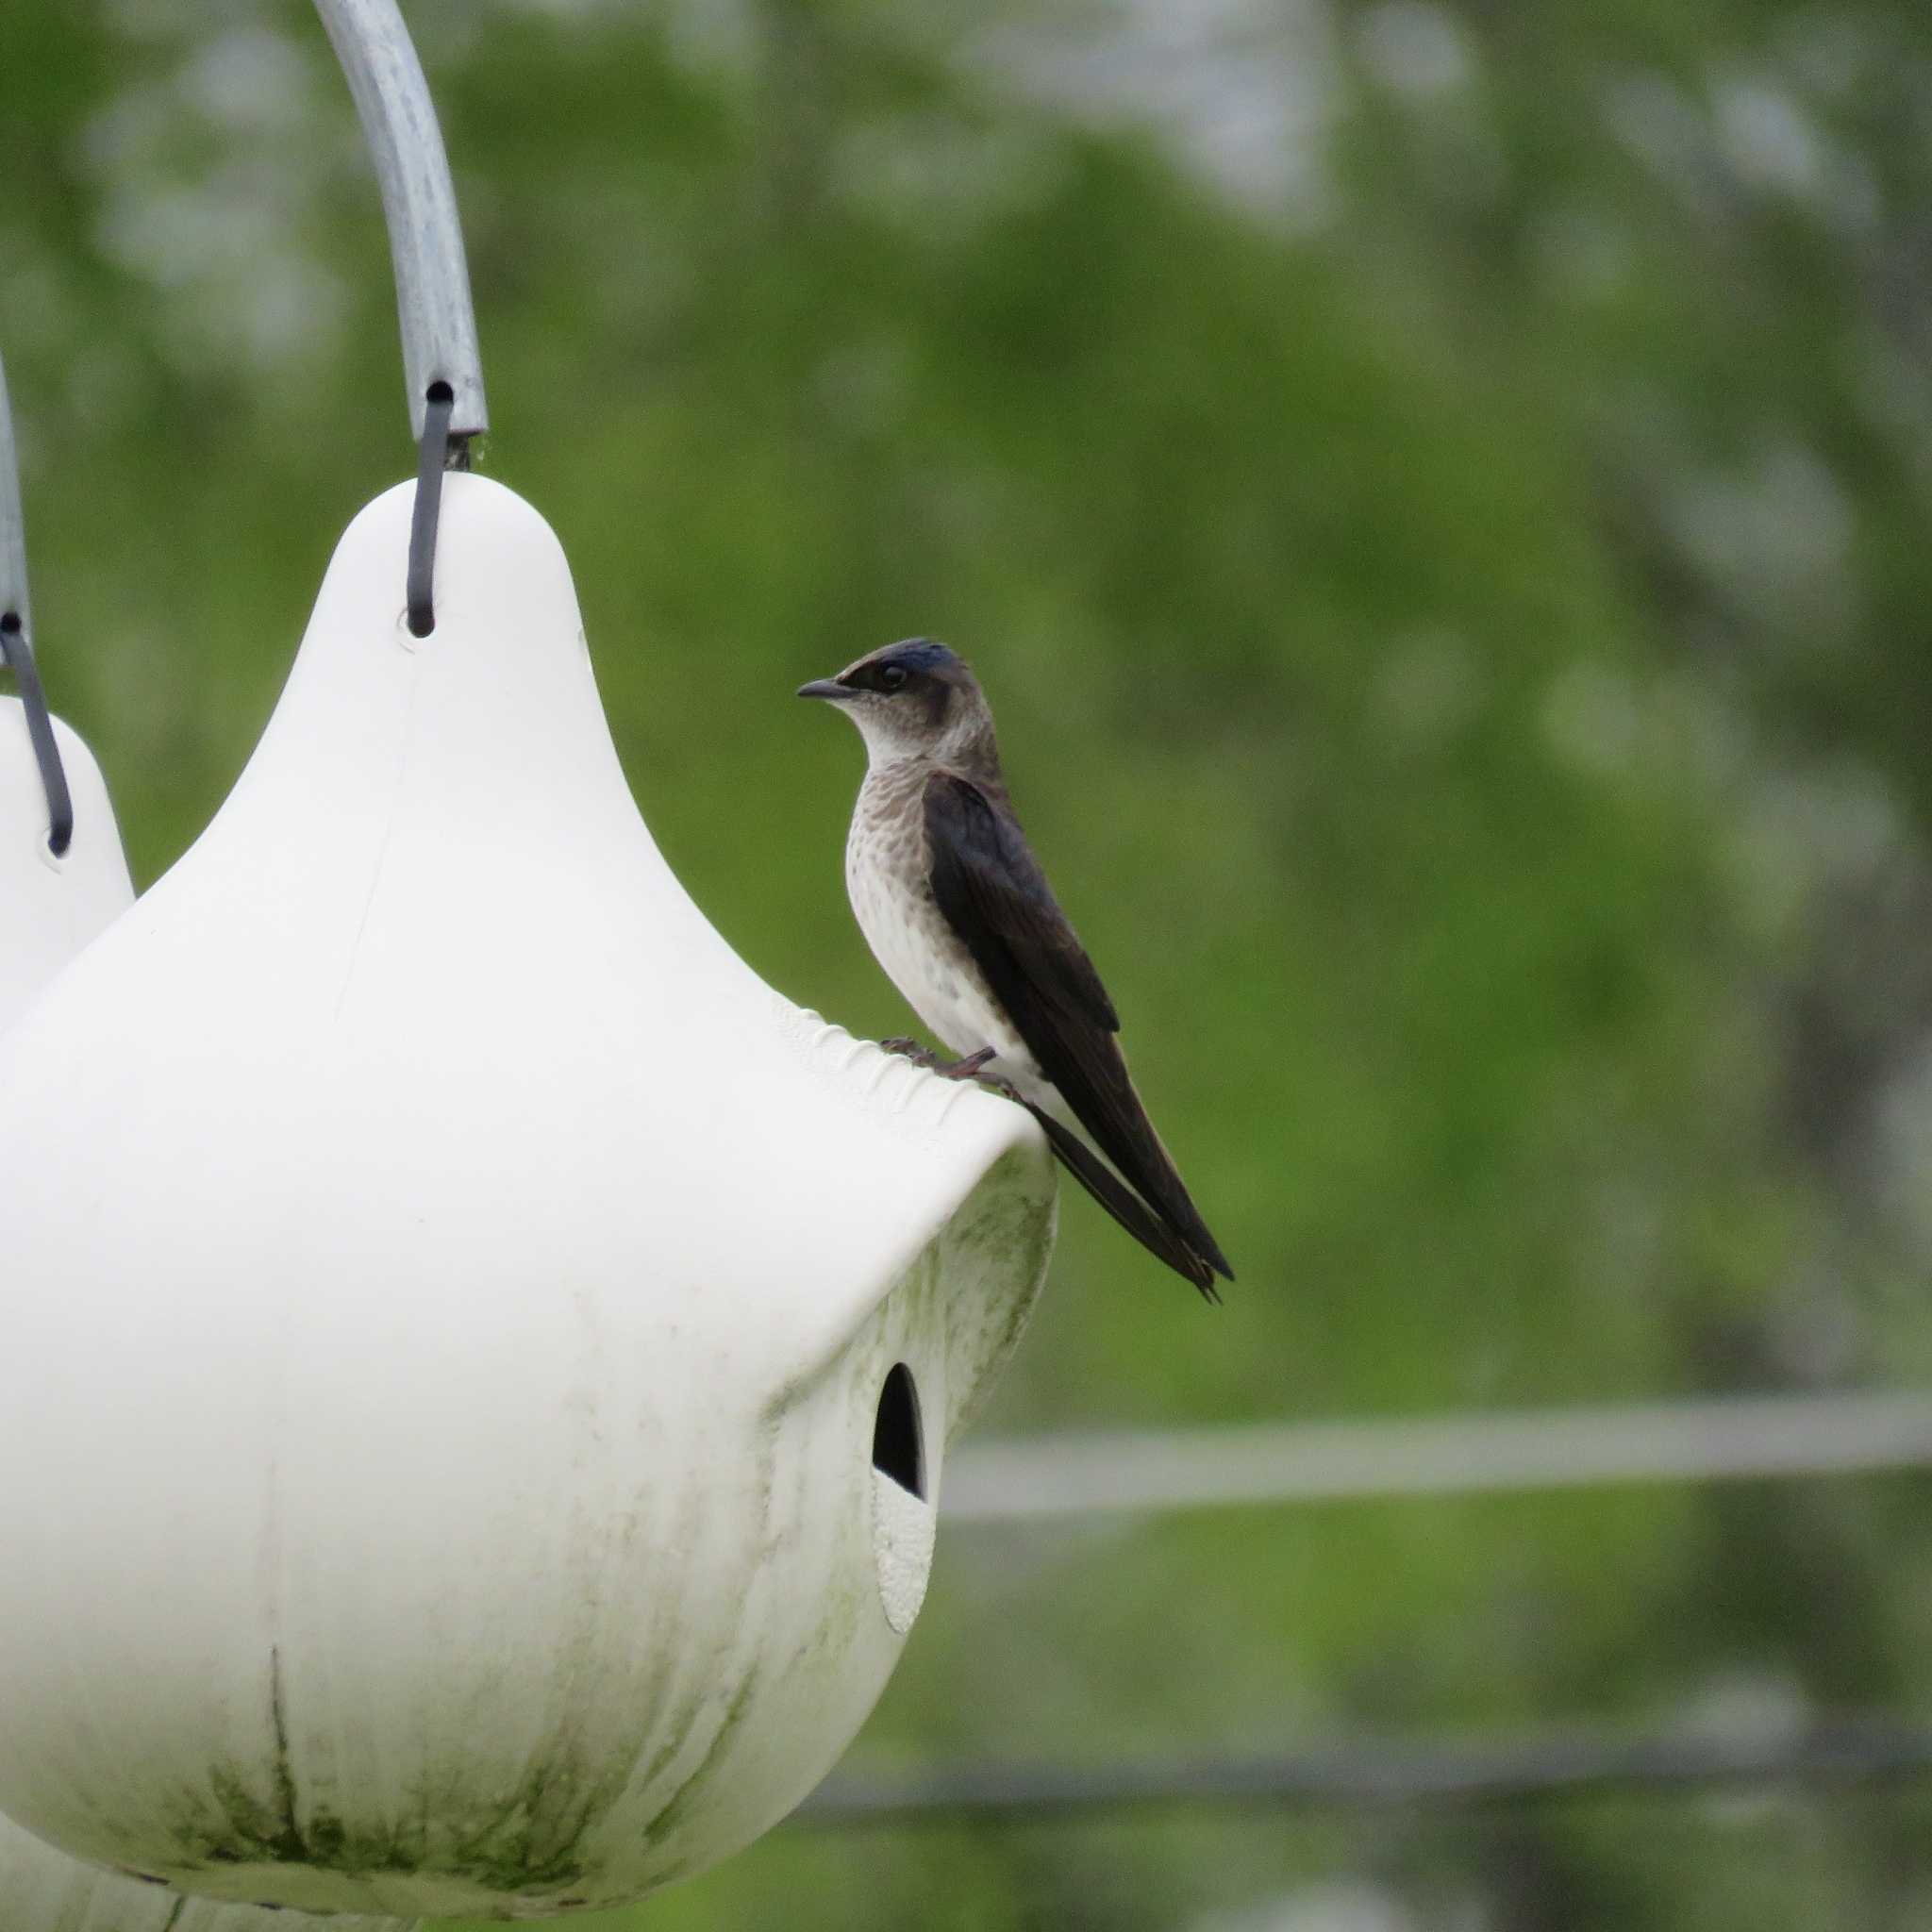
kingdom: Animalia
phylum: Chordata
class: Aves
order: Passeriformes
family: Hirundinidae
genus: Progne
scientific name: Progne subis
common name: Purple martin
